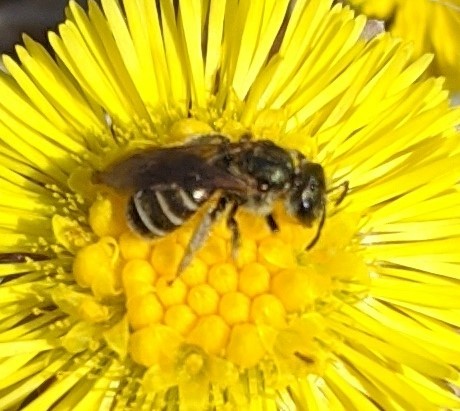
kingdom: Animalia
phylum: Arthropoda
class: Insecta
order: Hymenoptera
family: Halictidae
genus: Halictus
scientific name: Halictus confusus
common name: Southern bronze furrow bee
